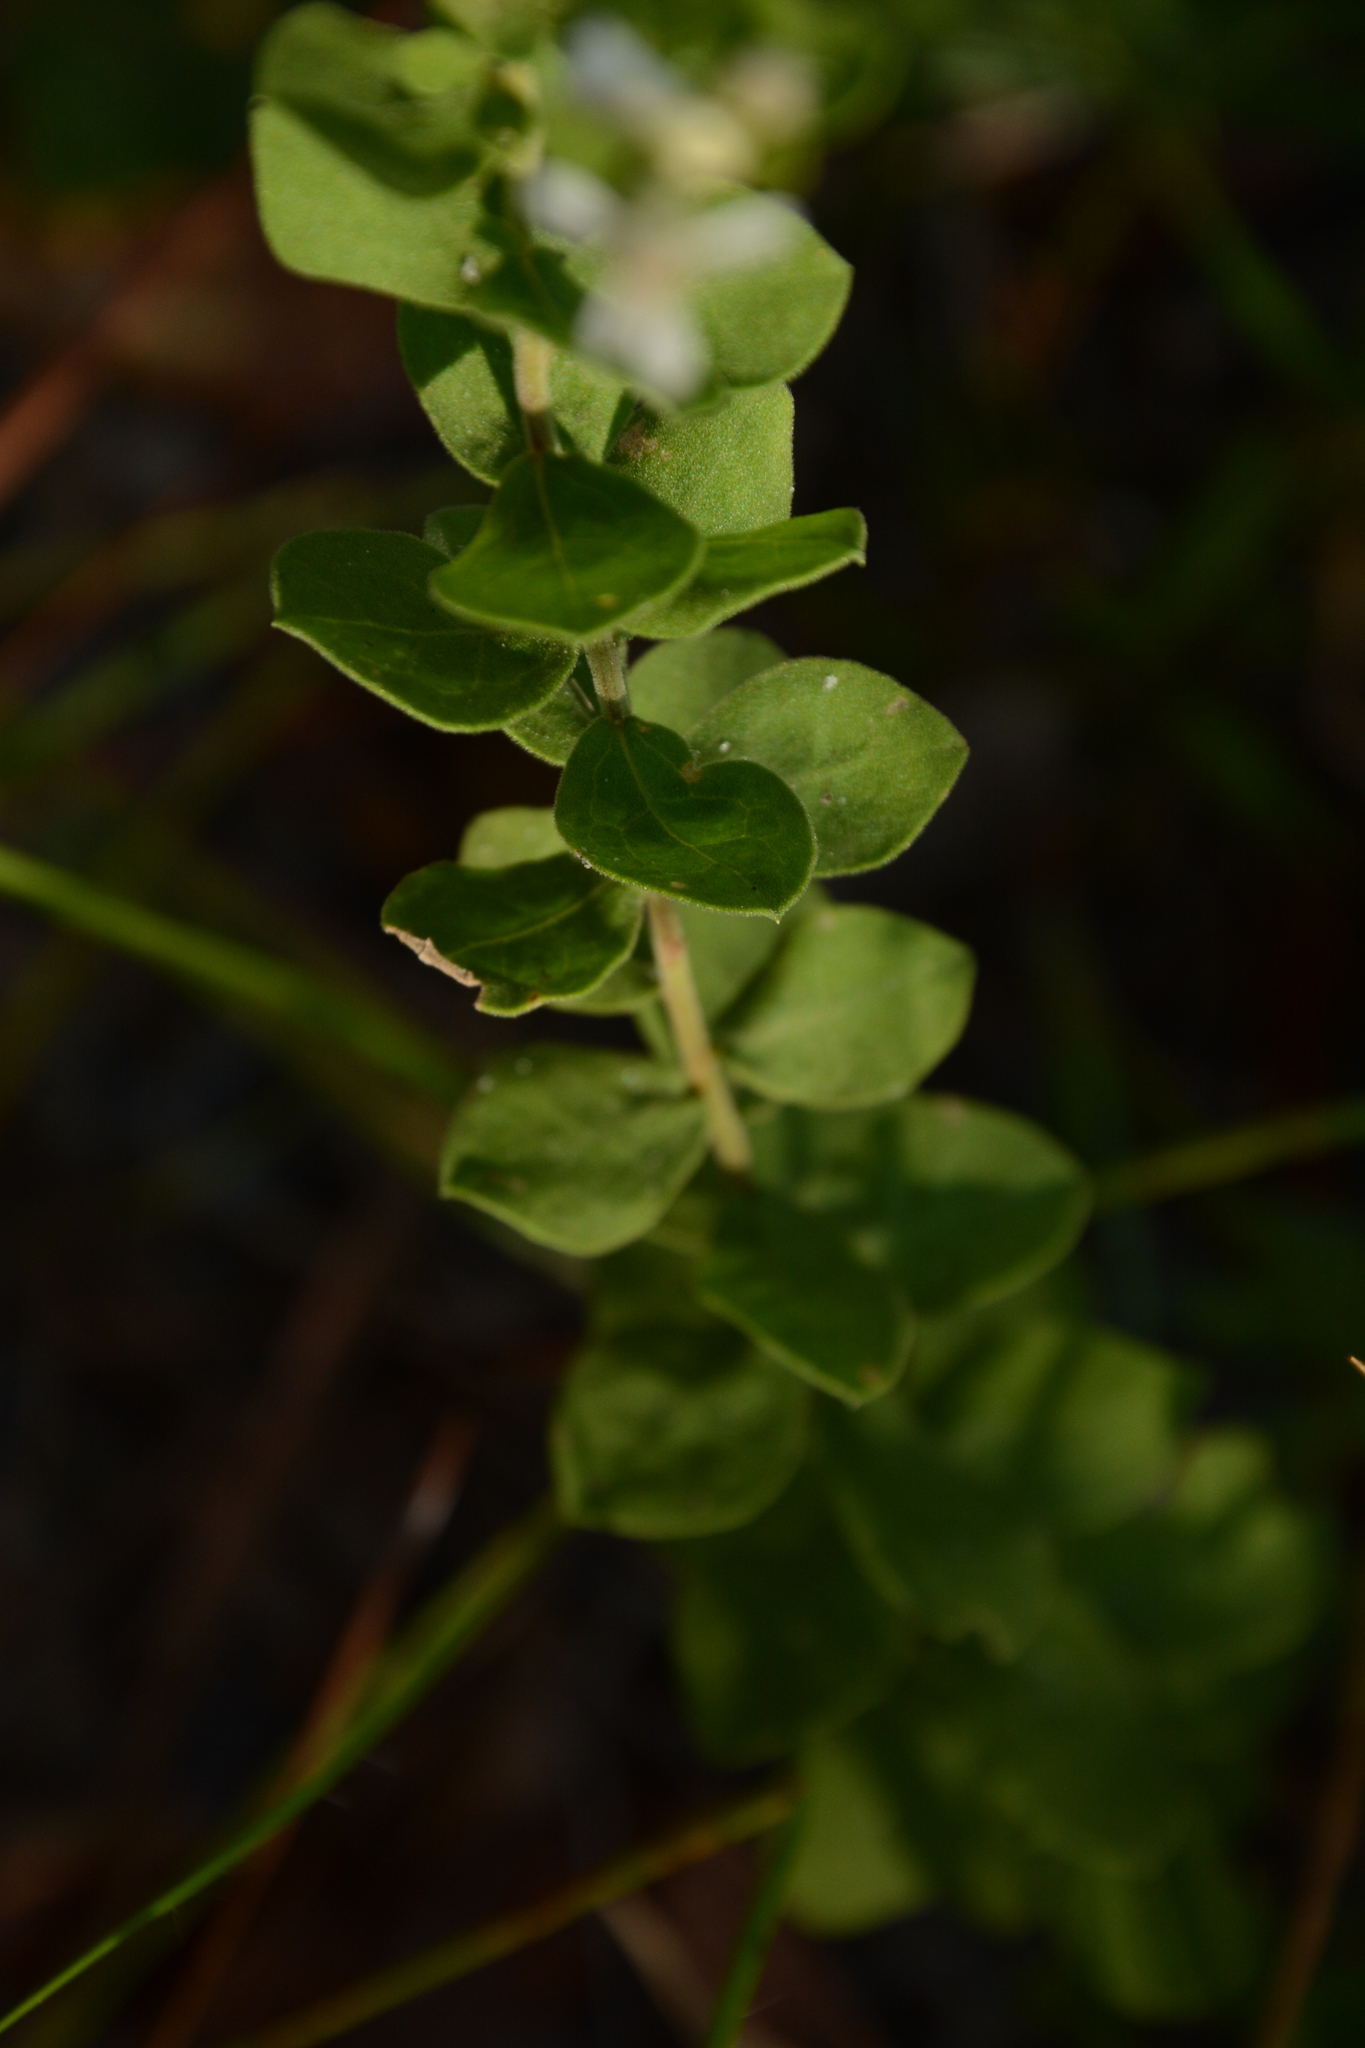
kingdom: Plantae
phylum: Tracheophyta
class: Magnoliopsida
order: Asterales
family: Asteraceae
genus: Sericocarpus
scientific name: Sericocarpus tortifolius
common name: Dixie aster
